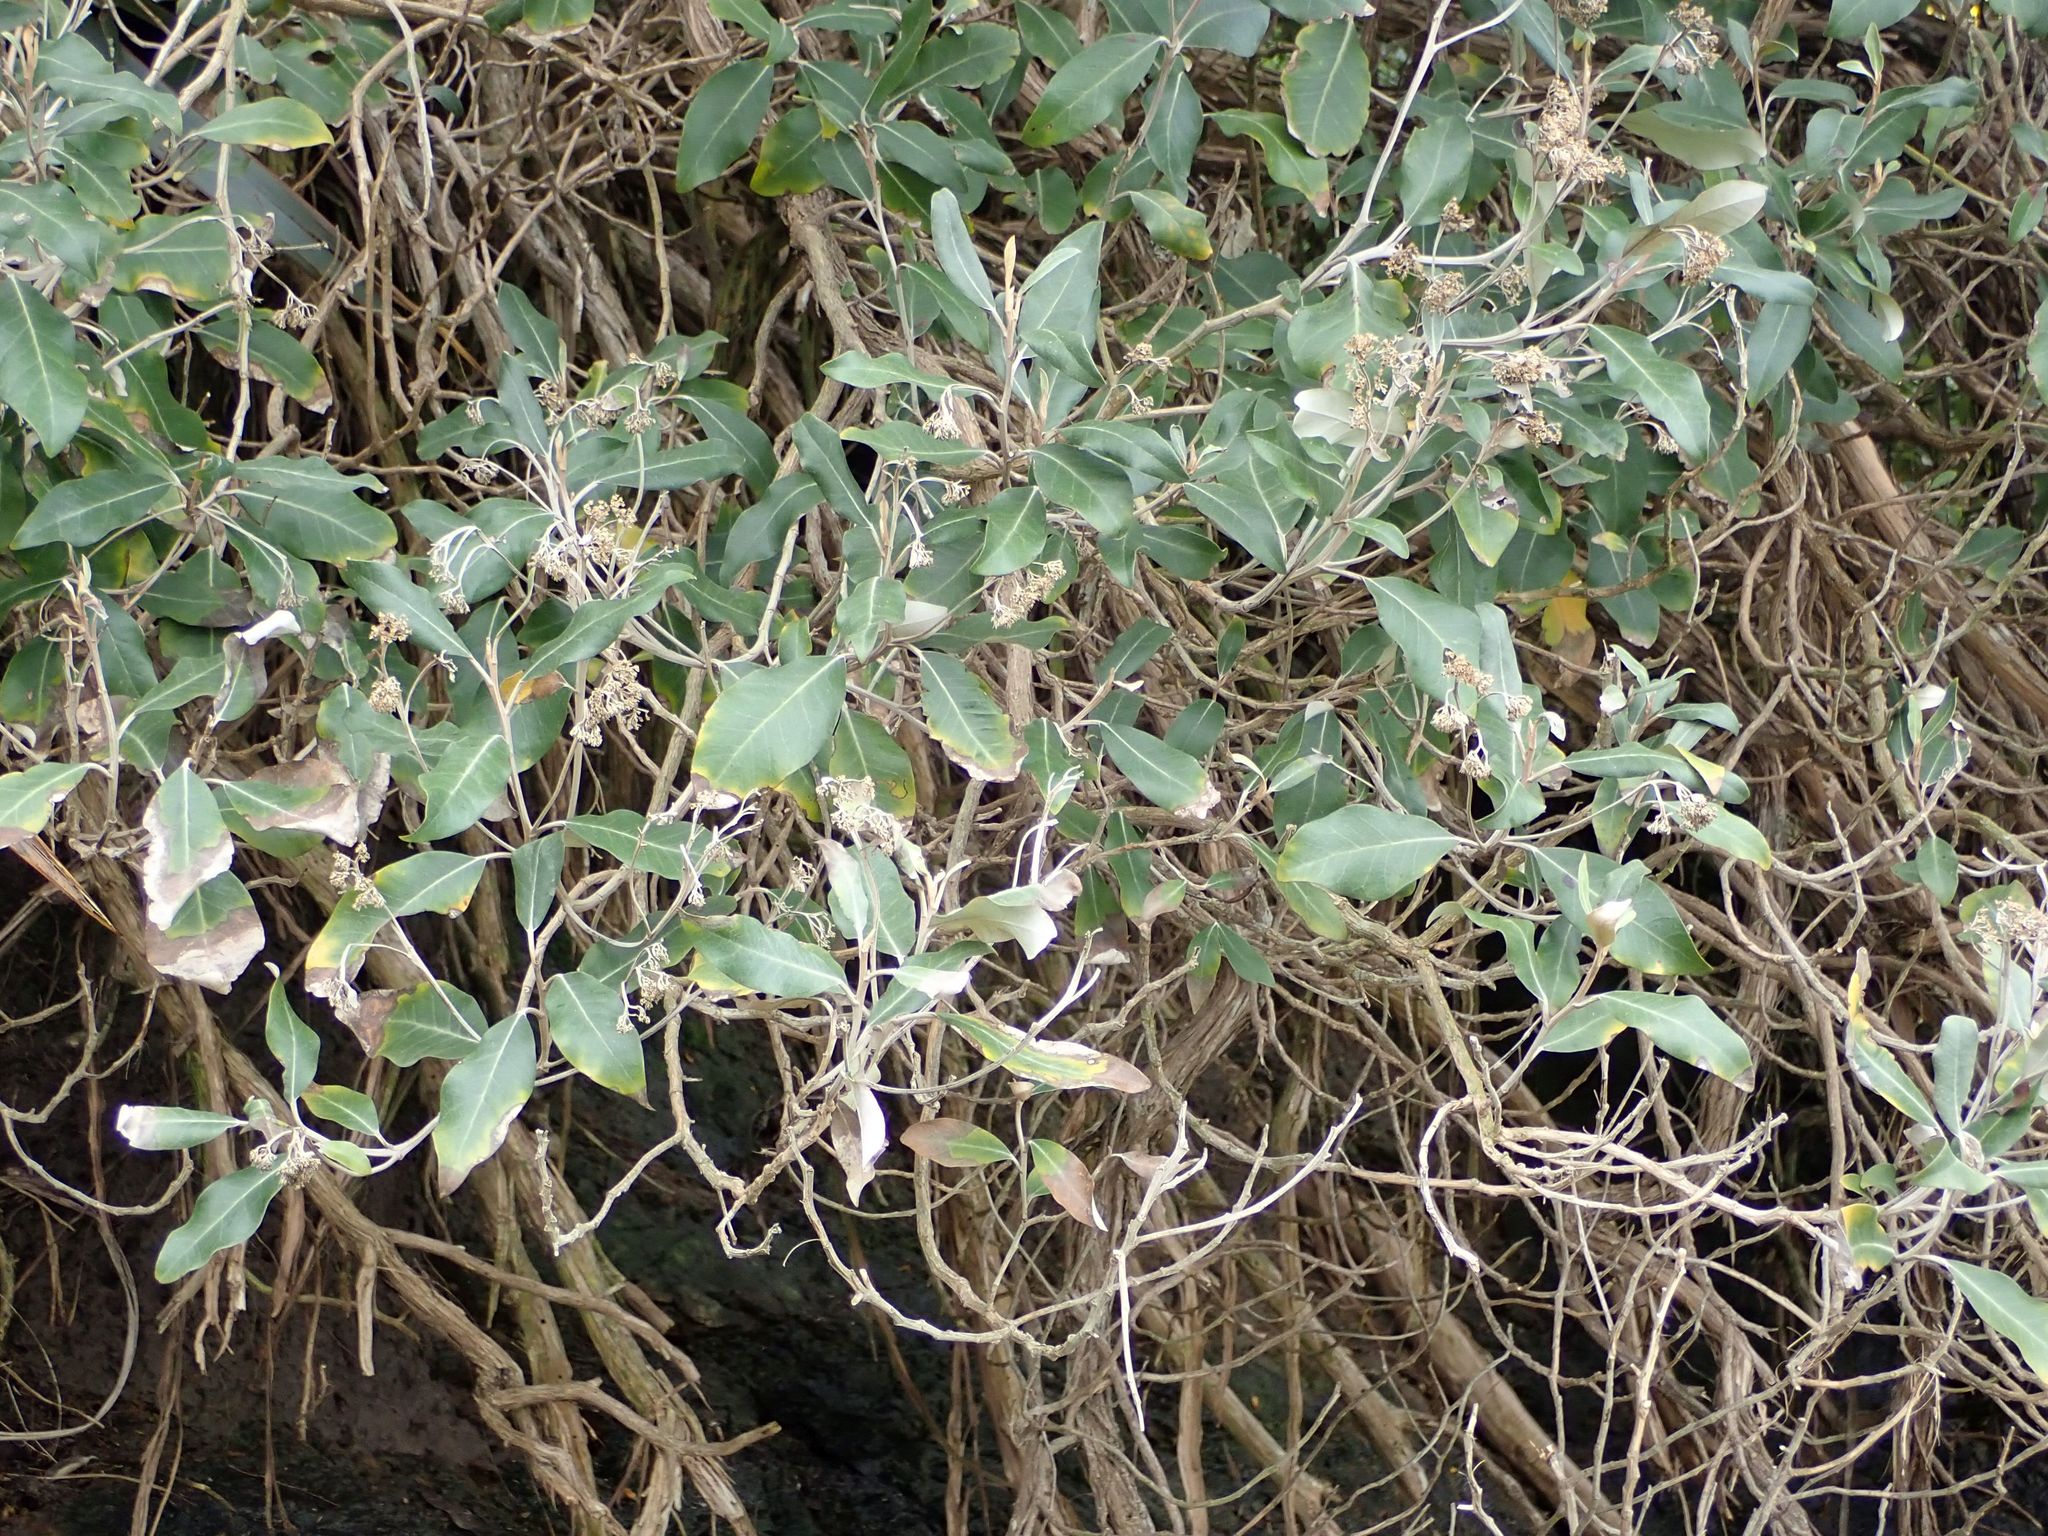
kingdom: Plantae
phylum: Tracheophyta
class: Magnoliopsida
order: Asterales
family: Asteraceae
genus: Olearia
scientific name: Olearia avicenniifolia
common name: Mangrove-leaf daisybush
